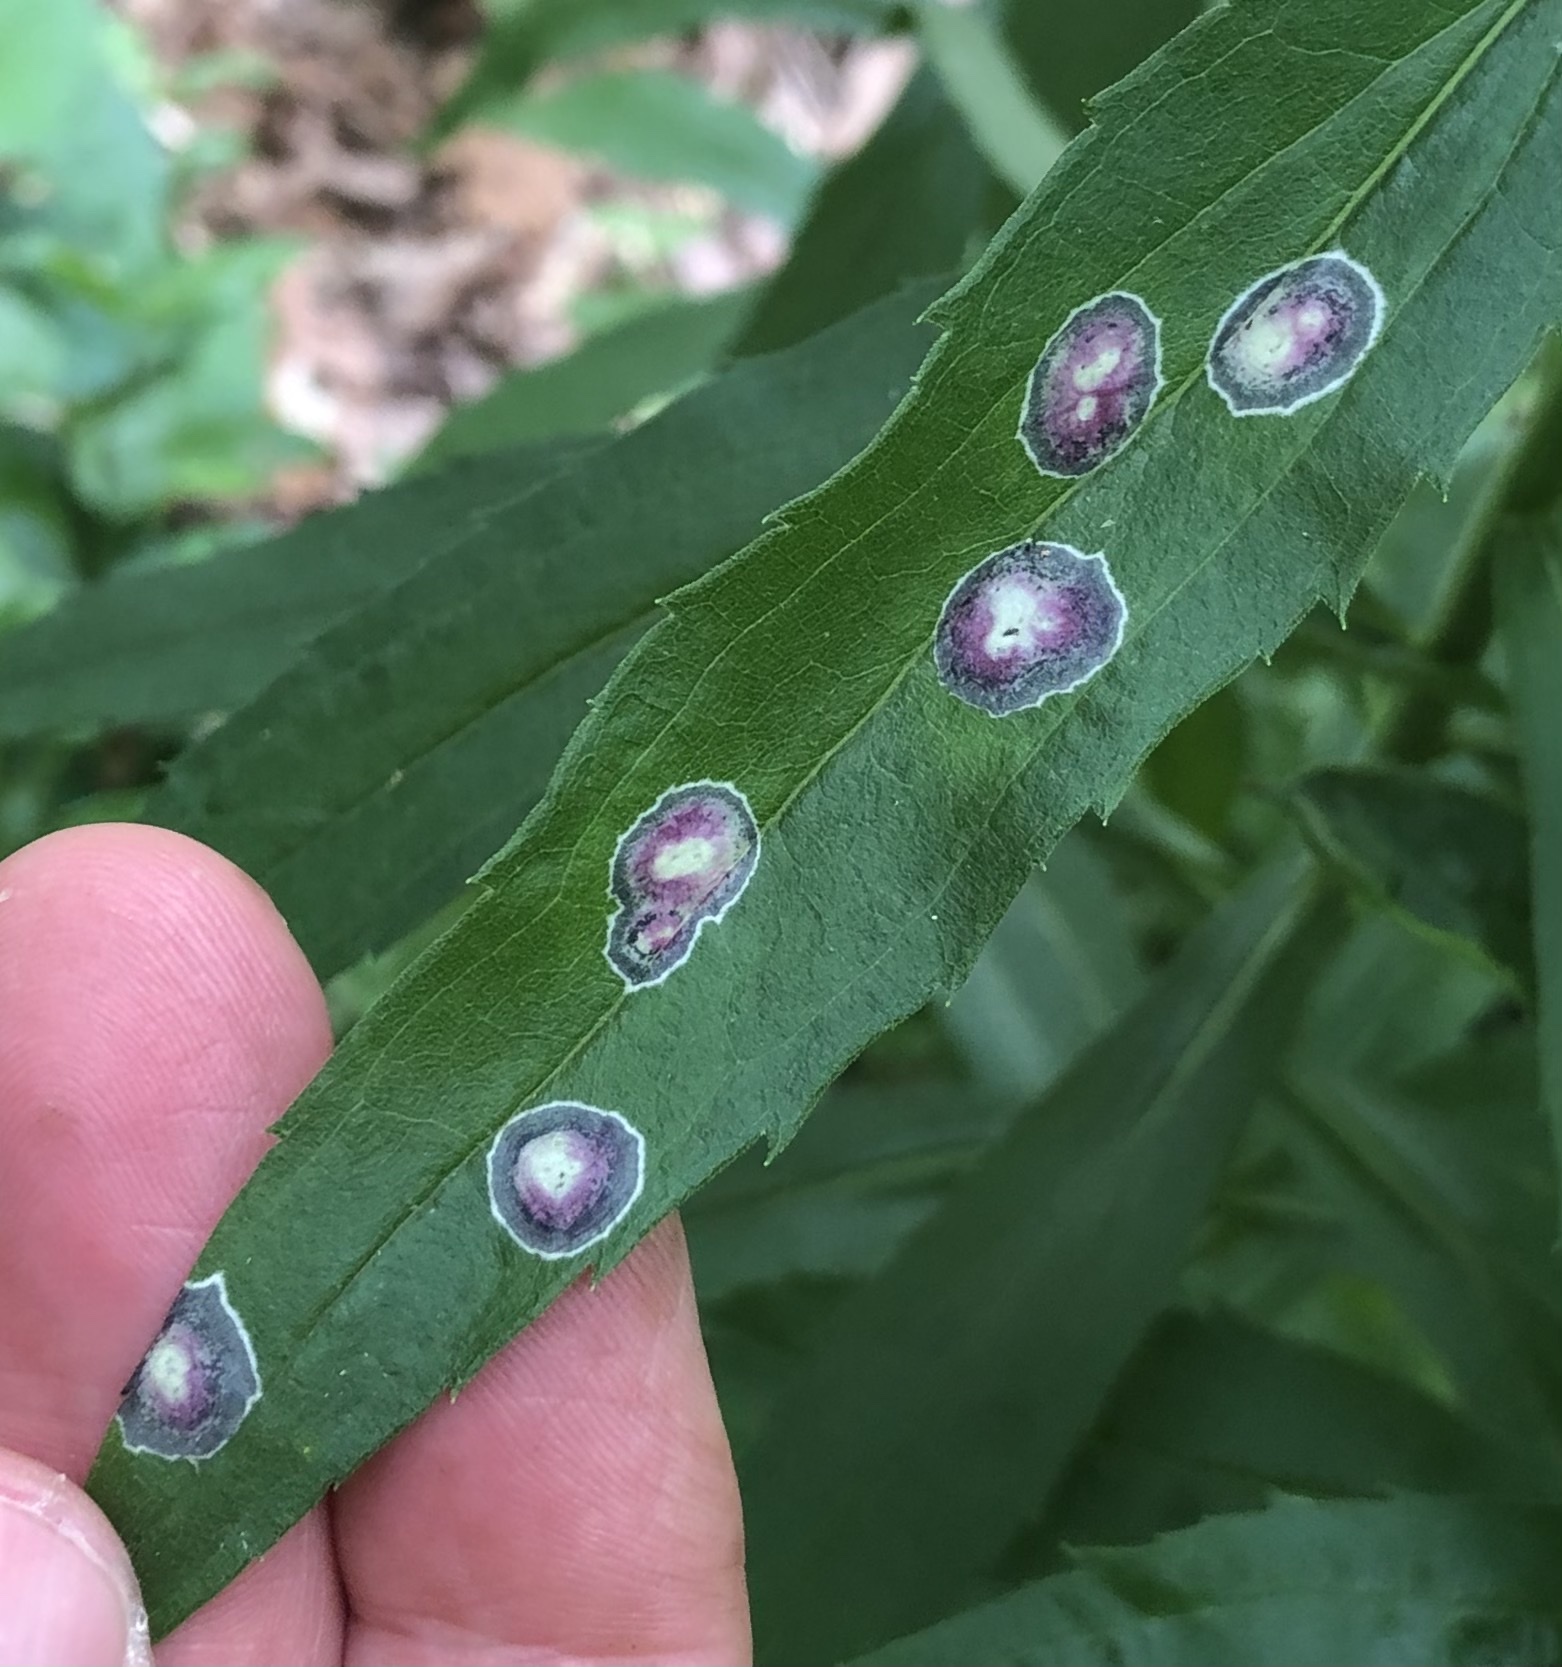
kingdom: Animalia
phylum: Arthropoda
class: Insecta
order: Diptera
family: Cecidomyiidae
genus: Asteromyia
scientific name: Asteromyia carbonifera
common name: Carbonifera goldenrod gall midge
